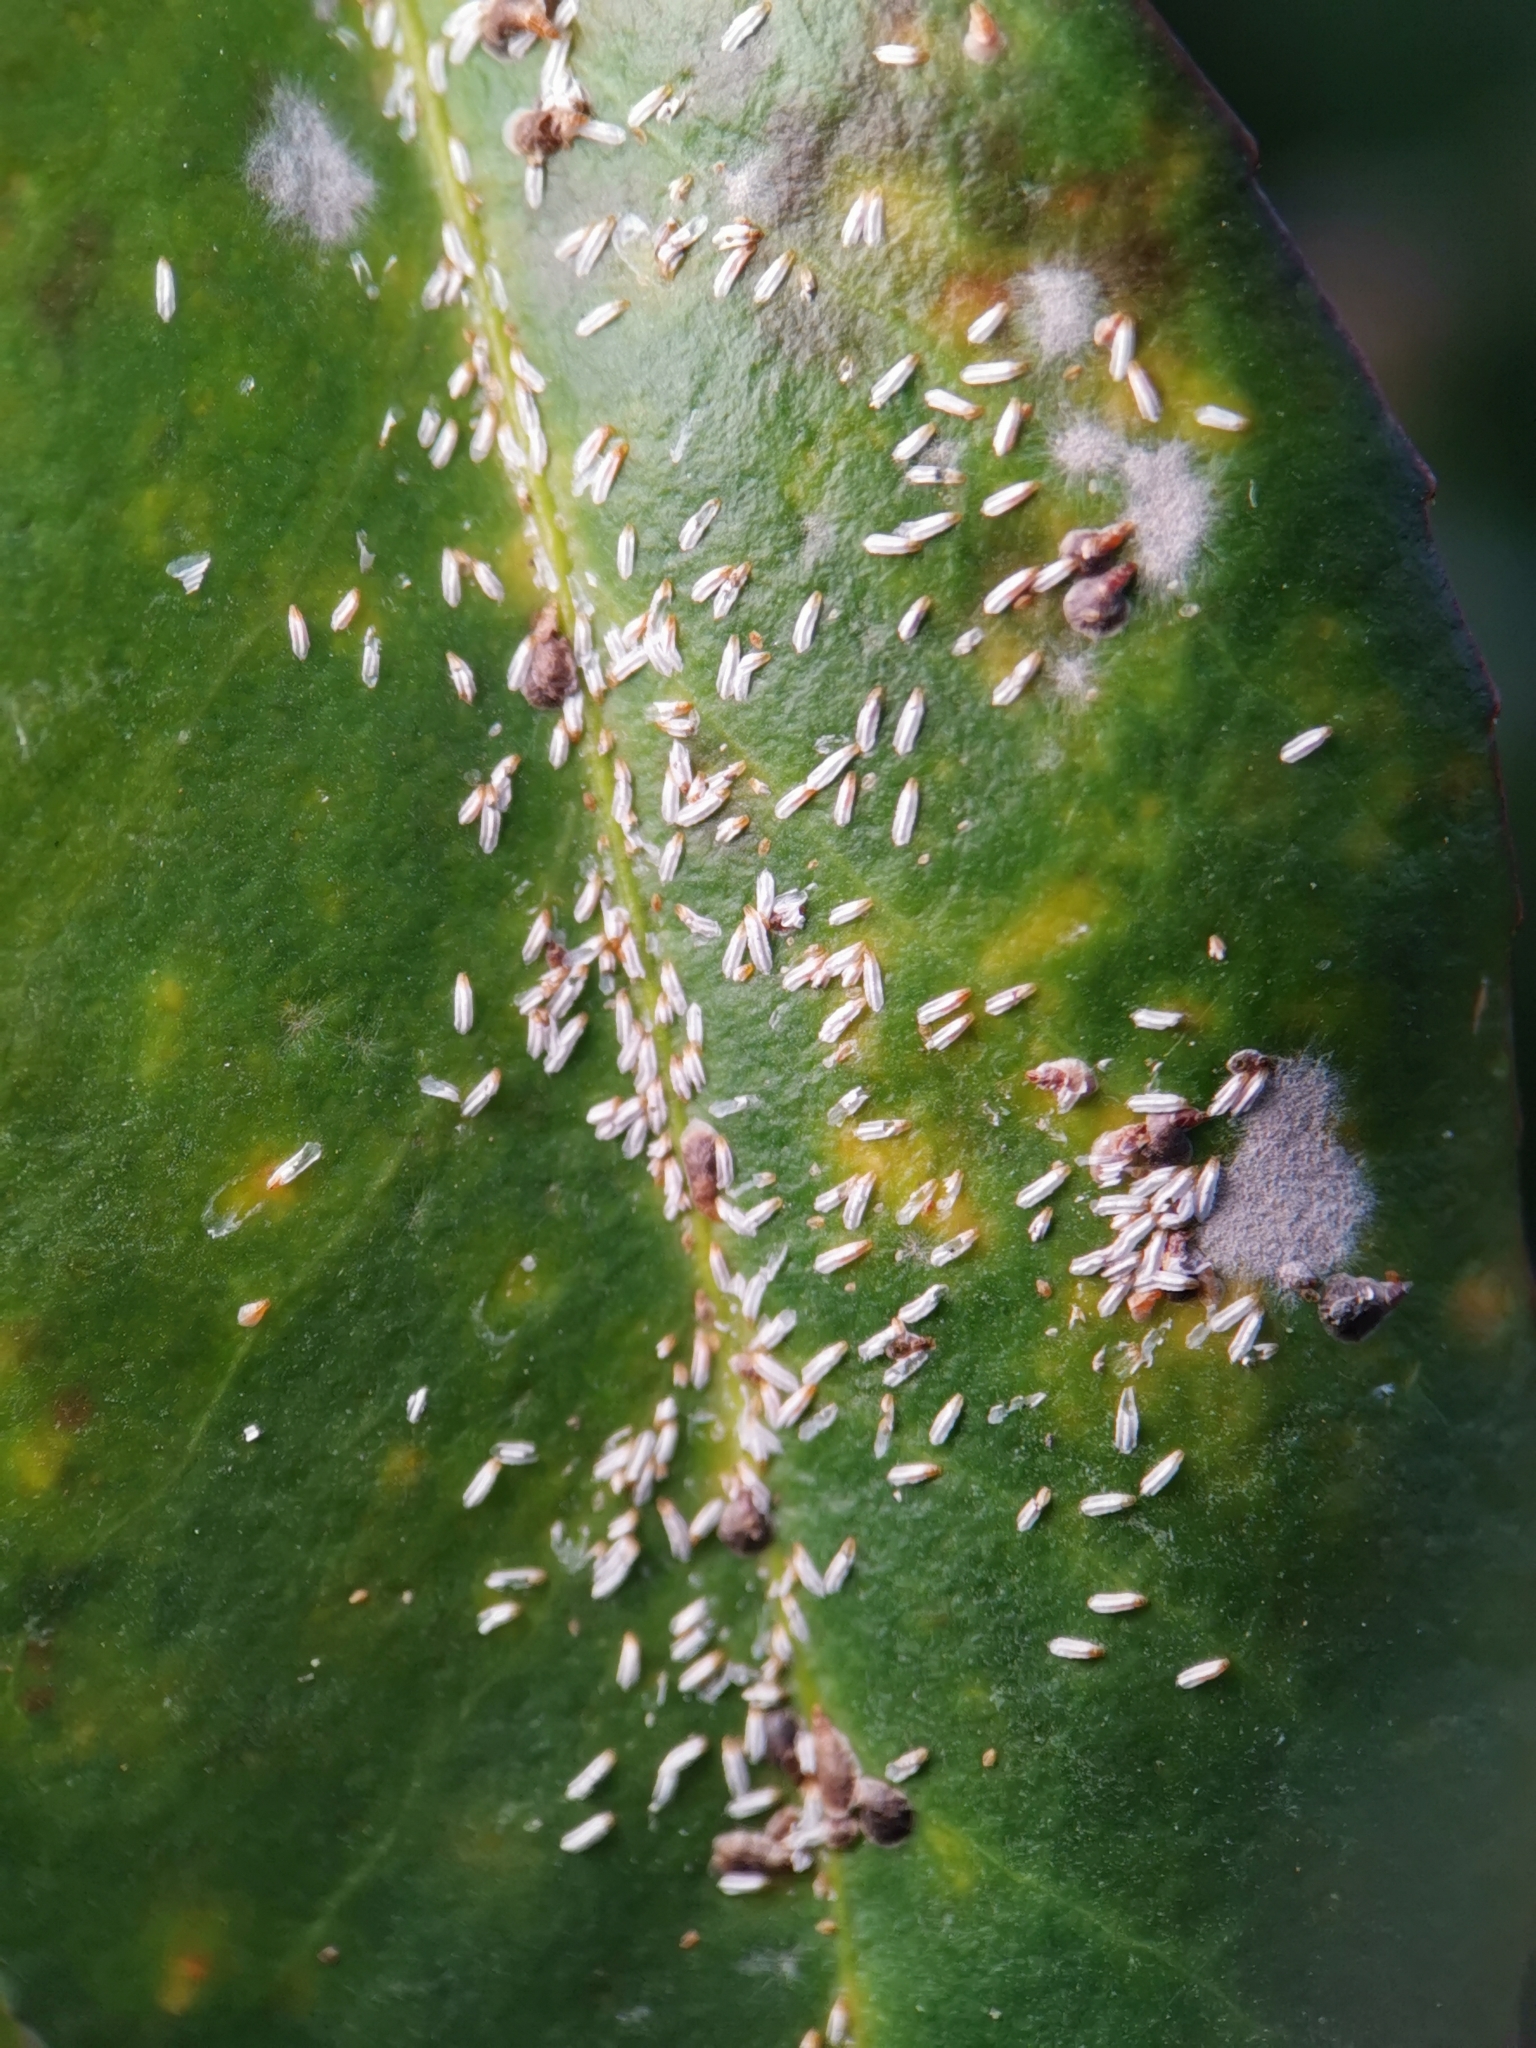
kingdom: Animalia
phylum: Arthropoda
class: Insecta
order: Hemiptera
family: Diaspididae
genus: Unaspis
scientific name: Unaspis euonymi
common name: Euonymus scale
